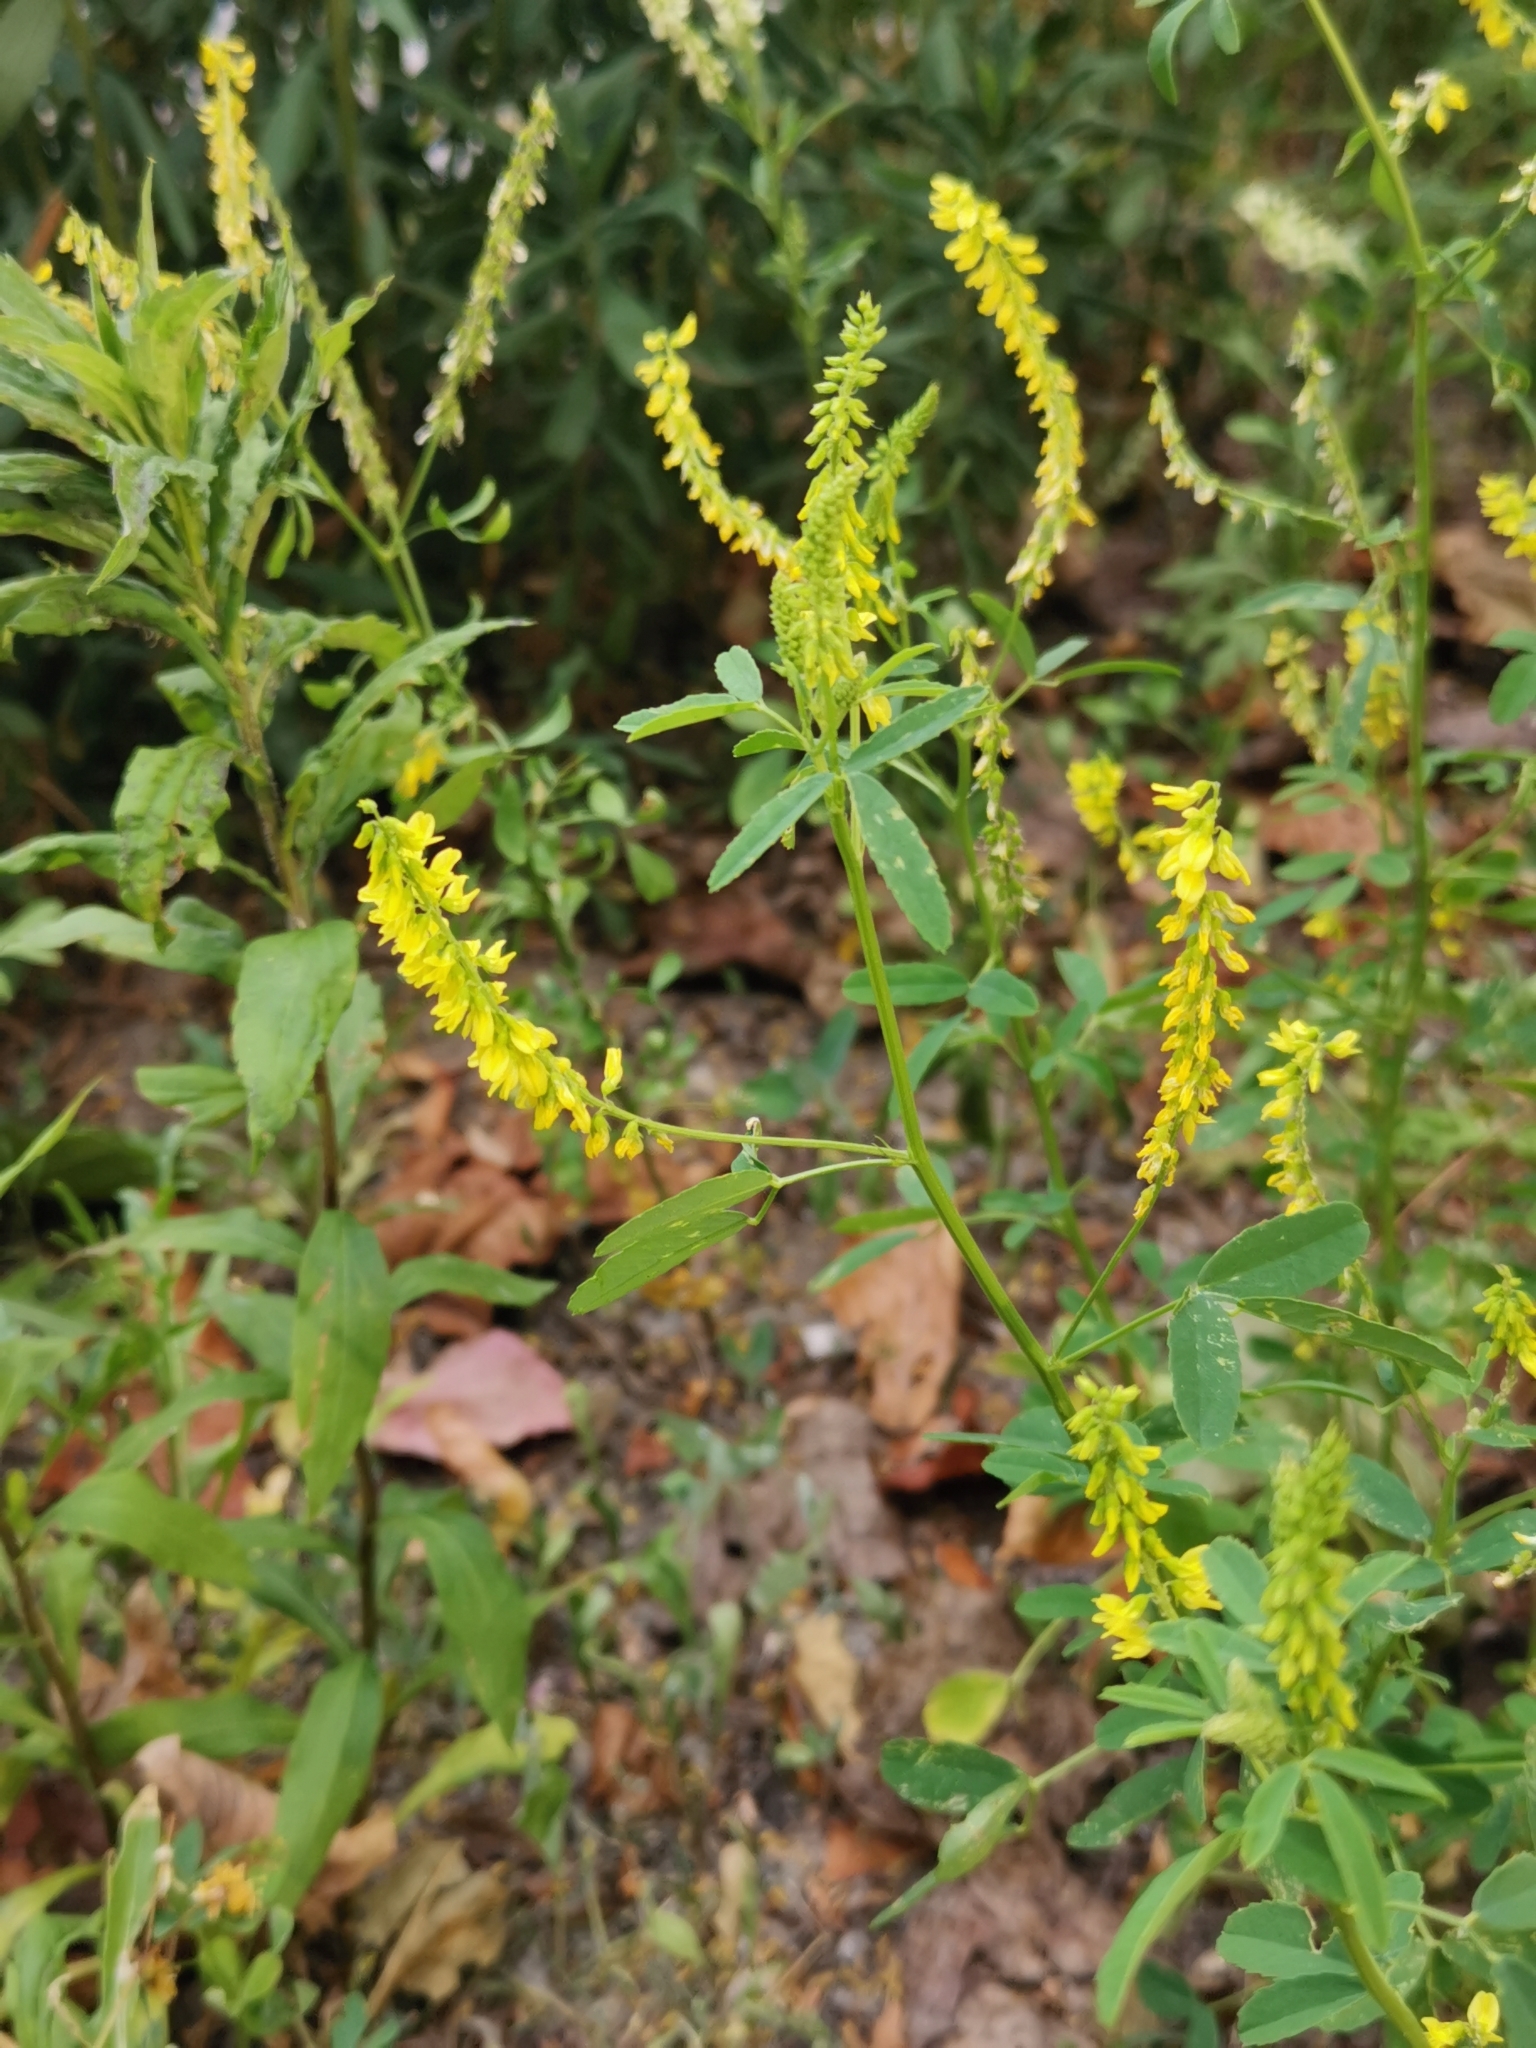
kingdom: Plantae
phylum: Tracheophyta
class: Magnoliopsida
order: Fabales
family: Fabaceae
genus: Melilotus
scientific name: Melilotus officinalis
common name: Sweetclover
